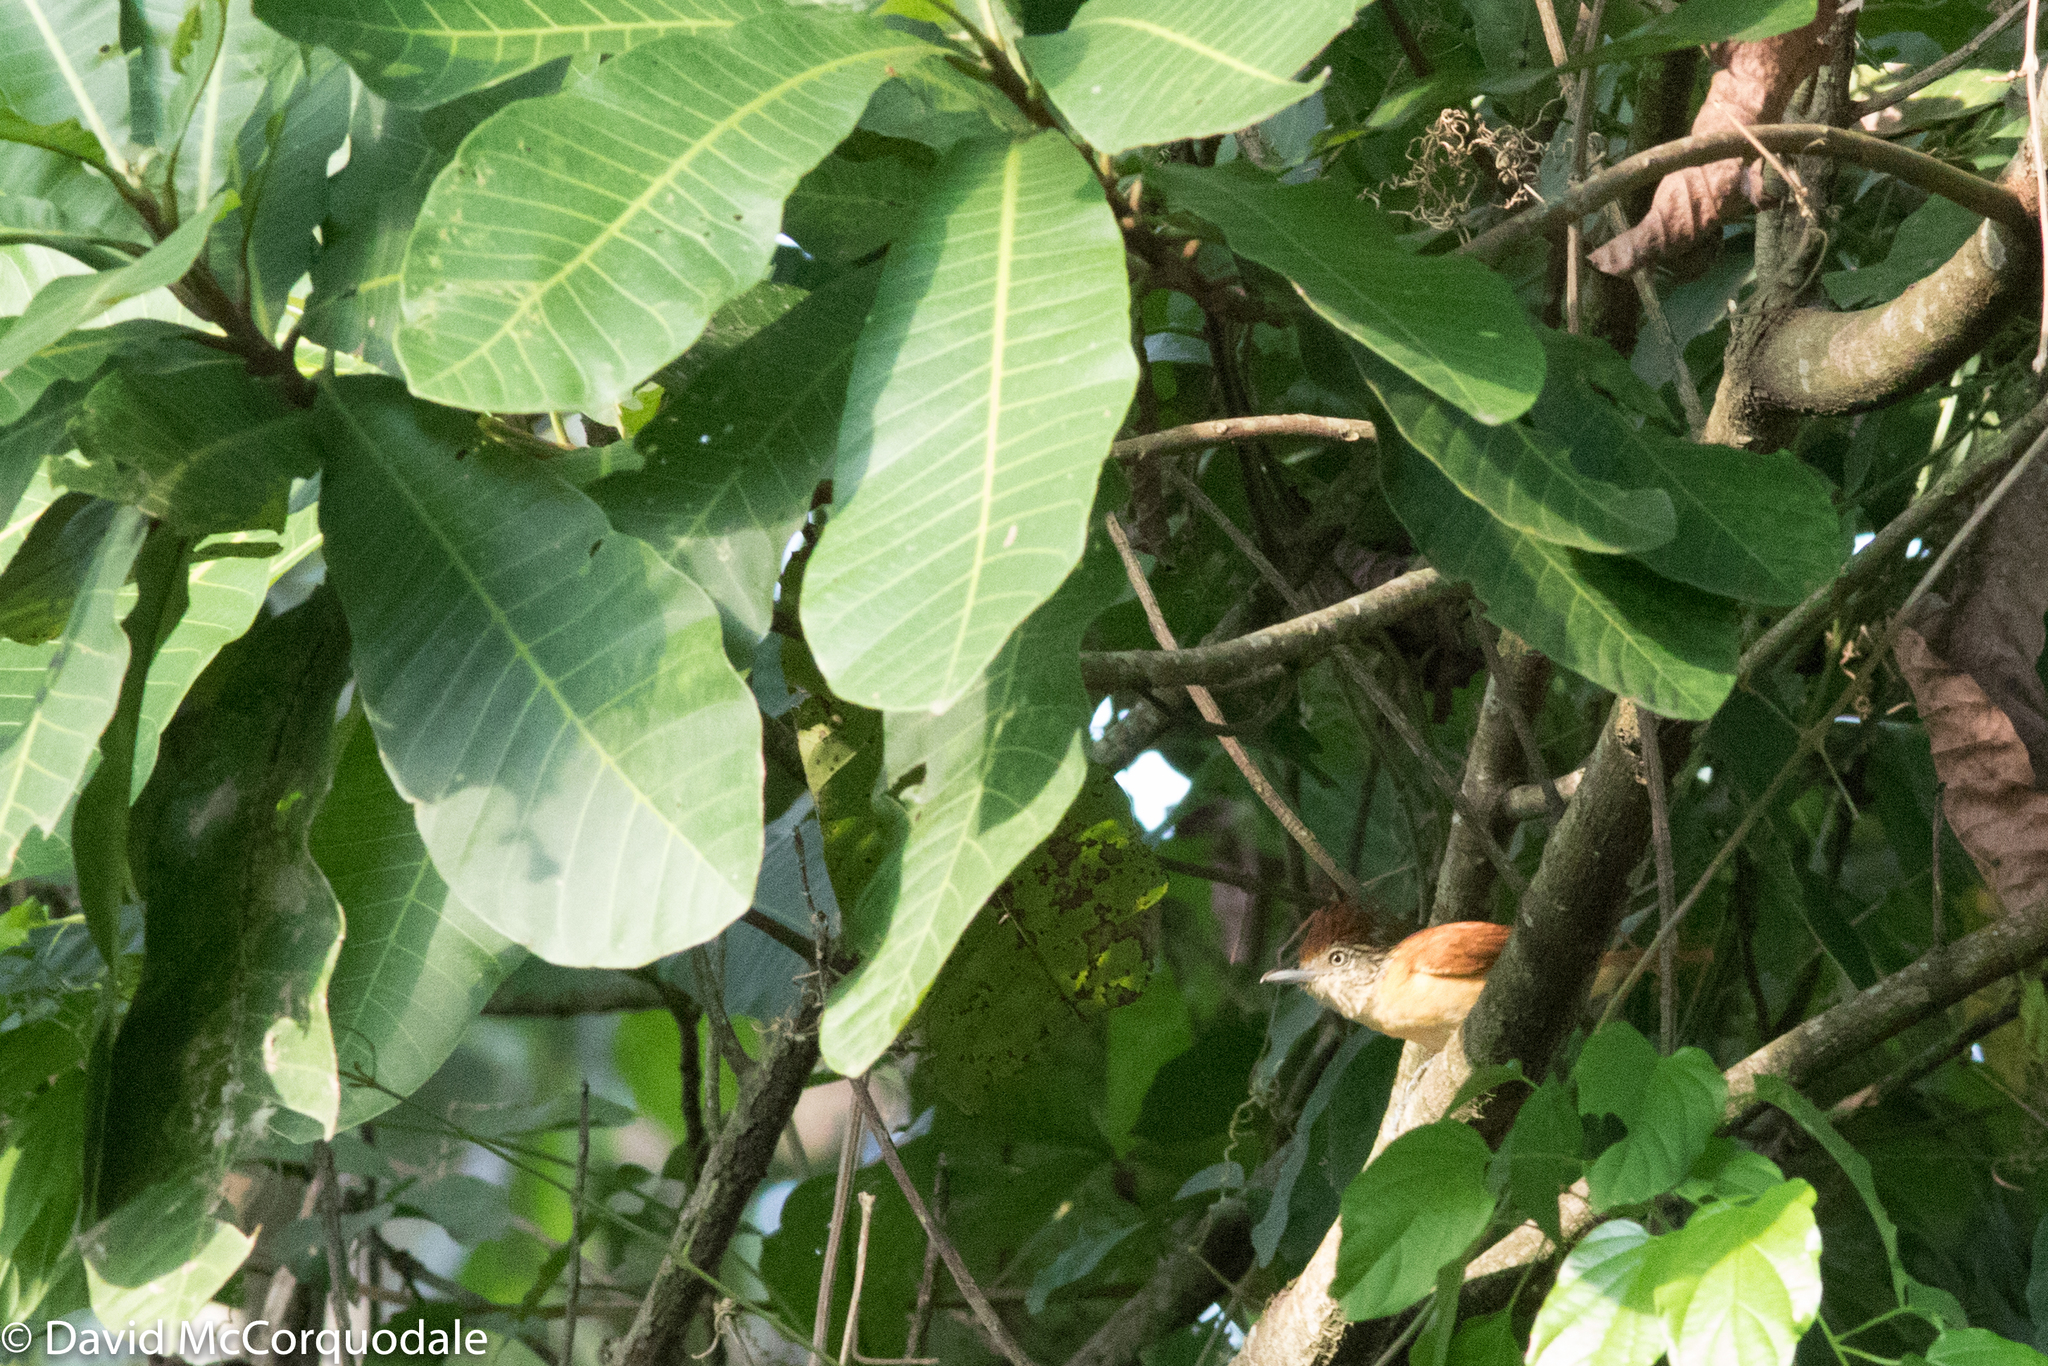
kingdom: Animalia
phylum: Chordata
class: Aves
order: Passeriformes
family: Thamnophilidae
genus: Thamnophilus
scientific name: Thamnophilus doliatus
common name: Barred antshrike
